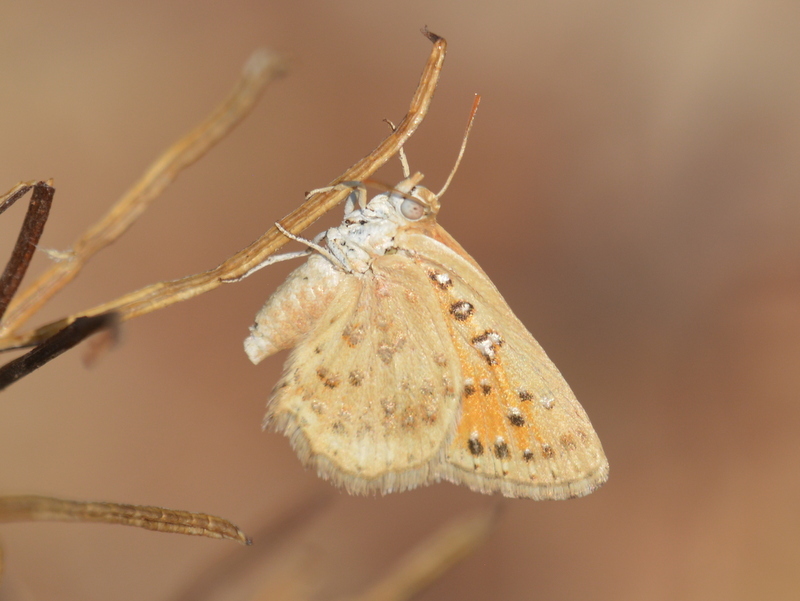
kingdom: Animalia
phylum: Arthropoda
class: Insecta
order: Lepidoptera
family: Lycaenidae
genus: Aloeides
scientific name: Aloeides damarensis
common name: Damara russet
